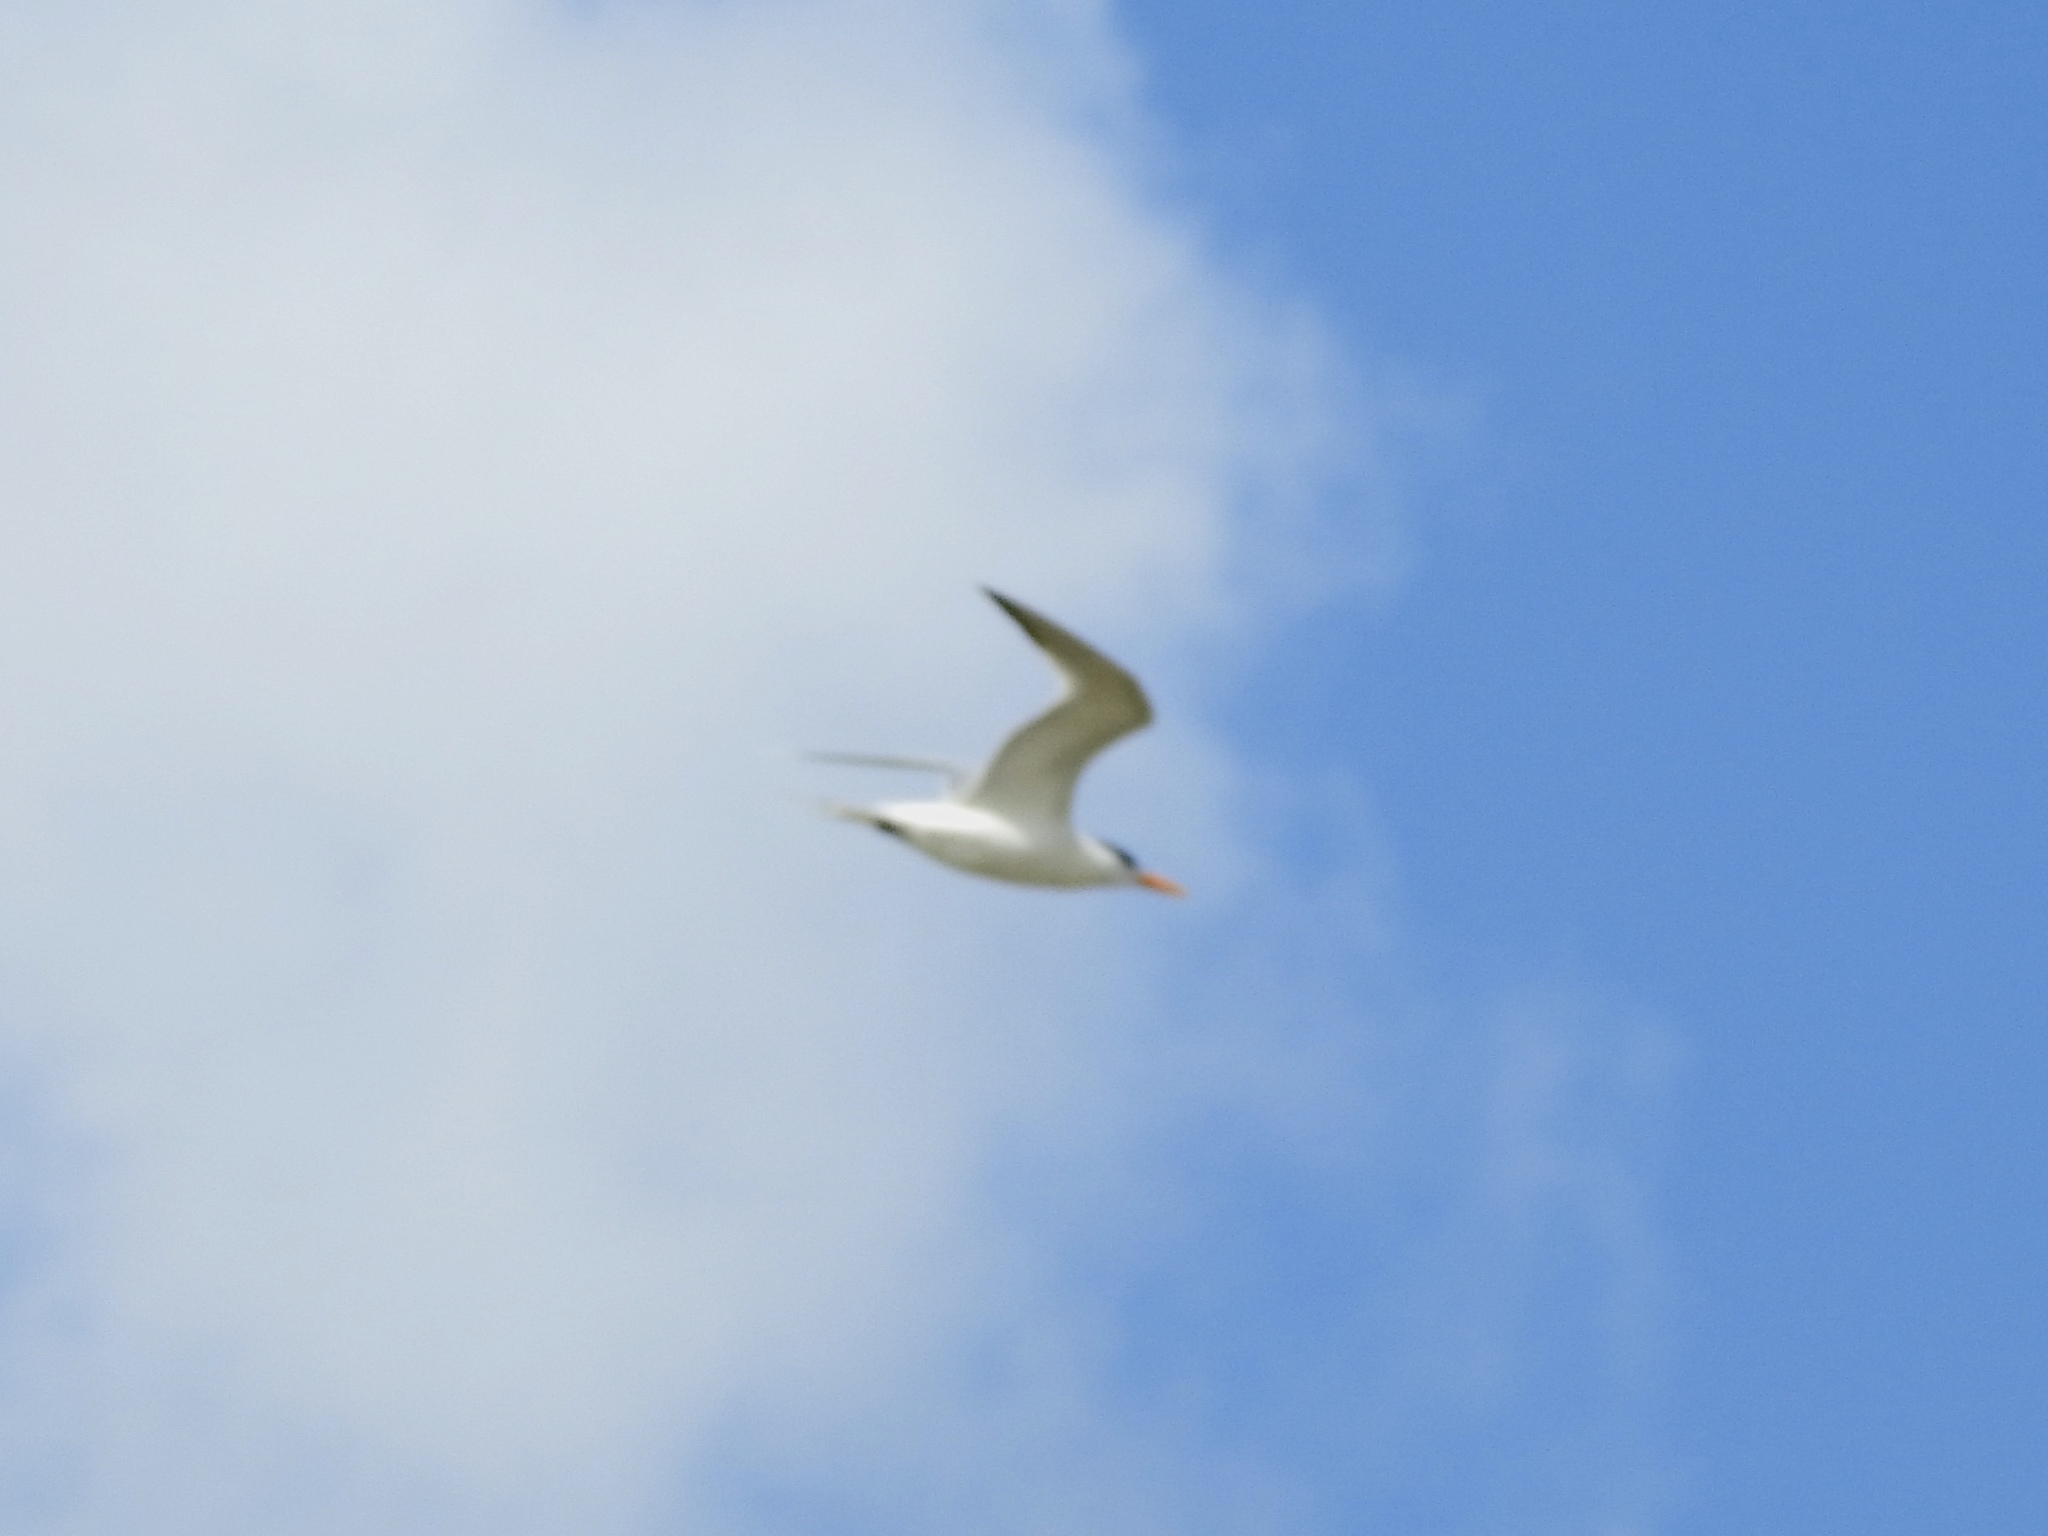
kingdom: Animalia
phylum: Chordata
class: Aves
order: Charadriiformes
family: Laridae
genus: Sternula
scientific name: Sternula antillarum
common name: Least tern
